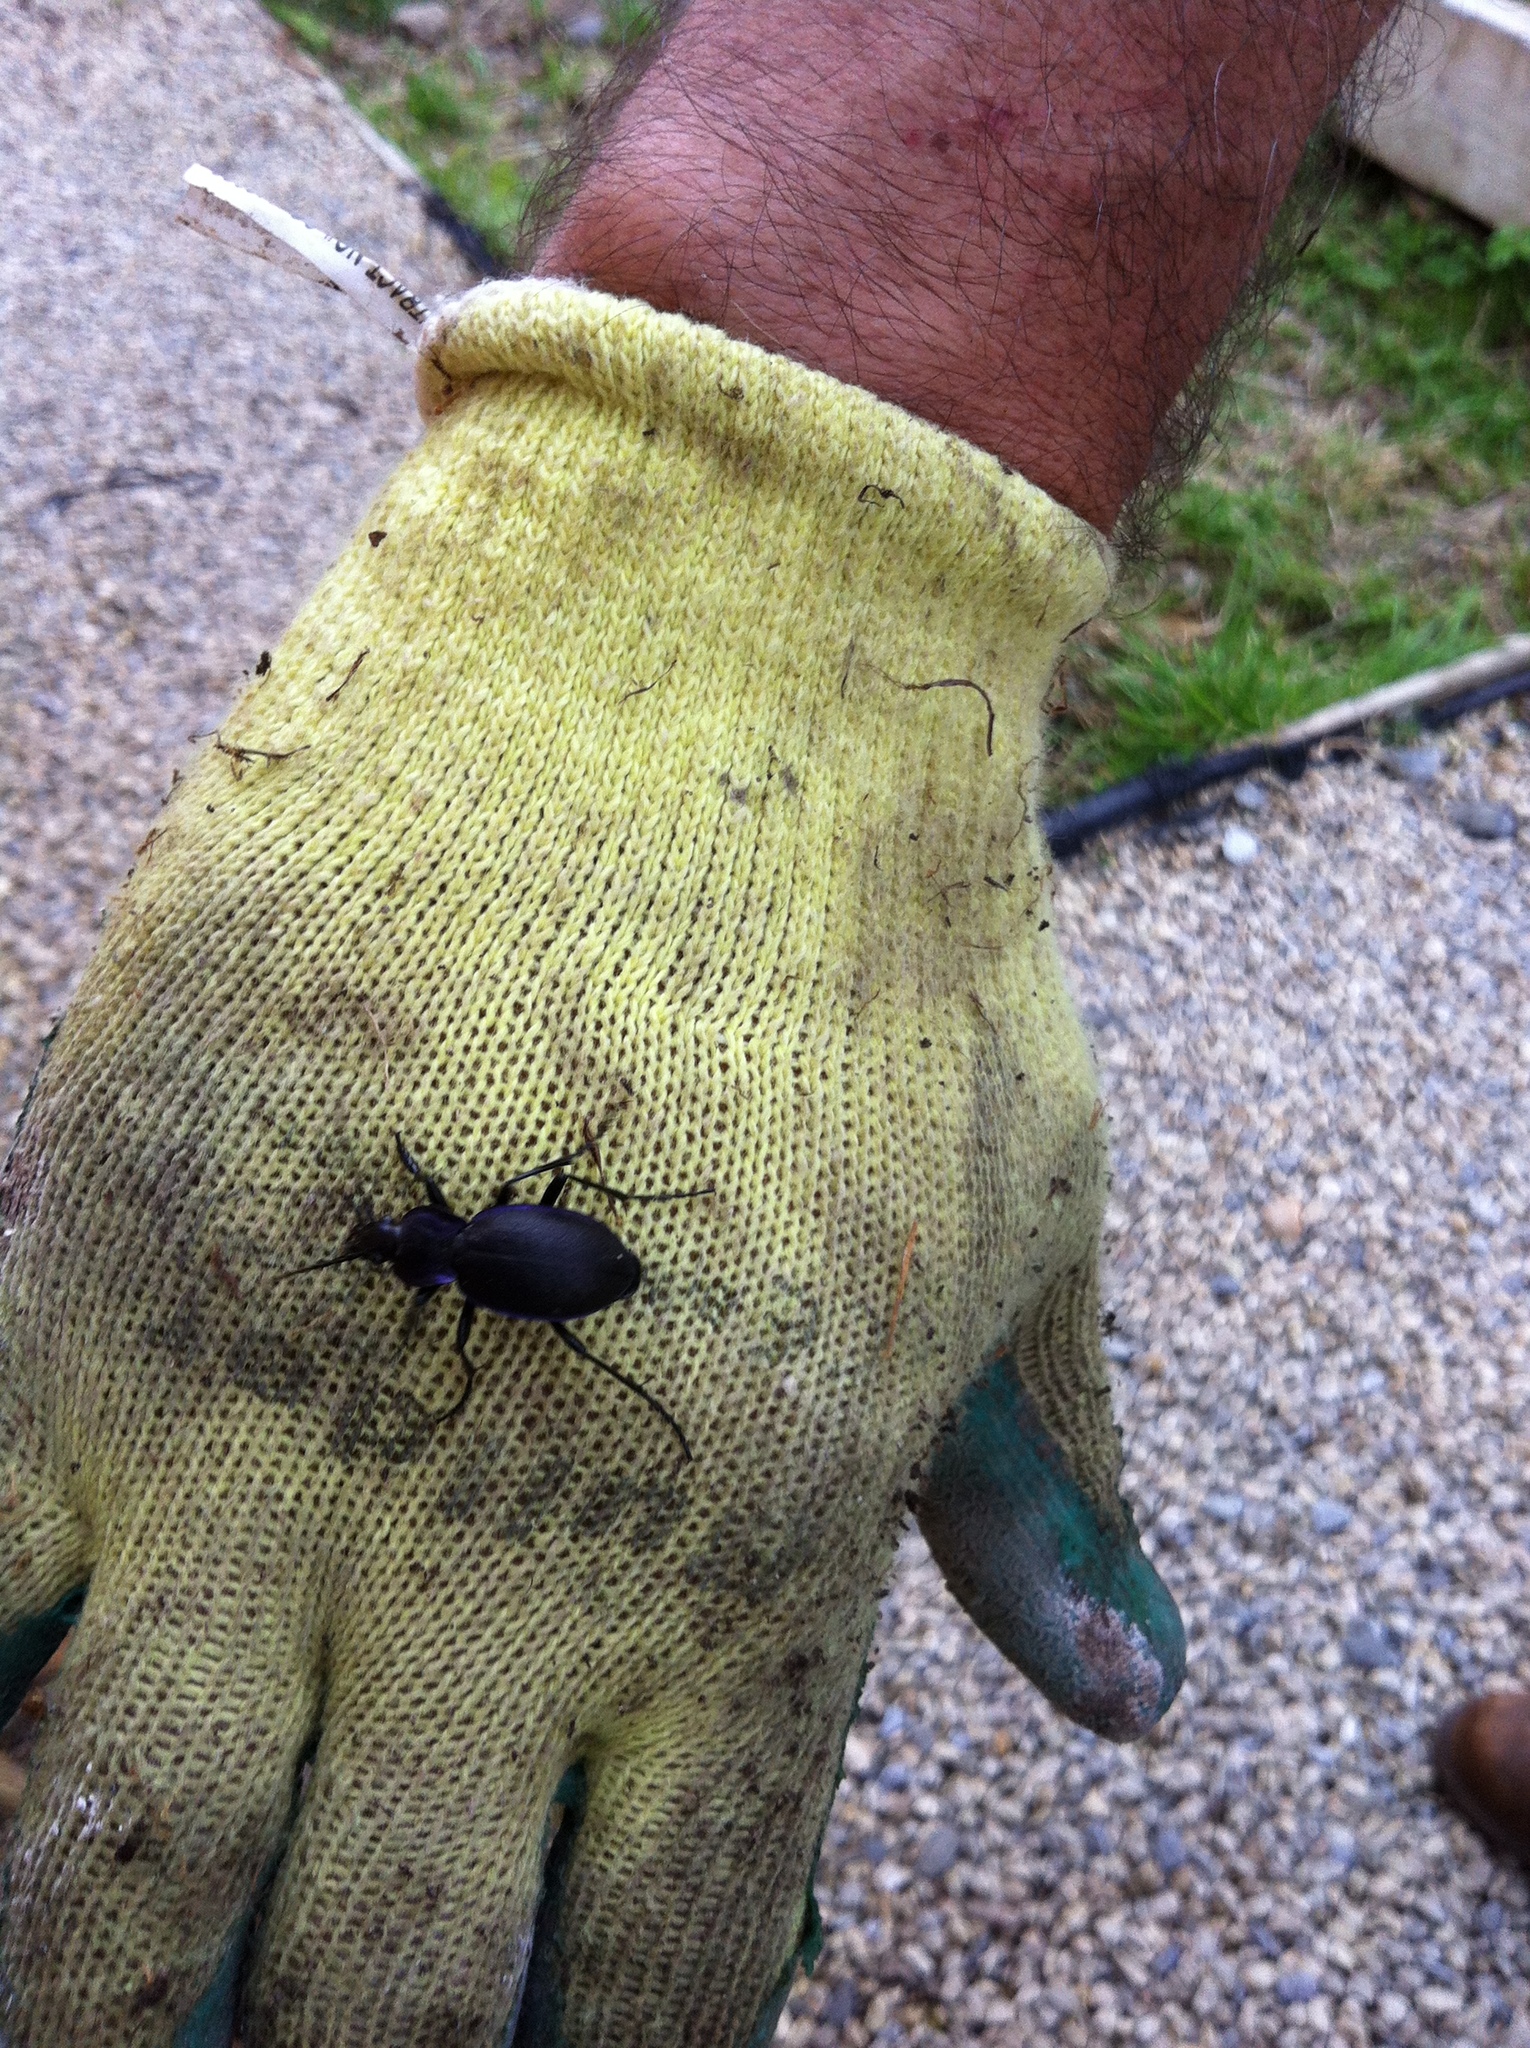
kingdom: Animalia
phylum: Arthropoda
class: Insecta
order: Coleoptera
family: Carabidae
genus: Carabus
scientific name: Carabus problematicus
